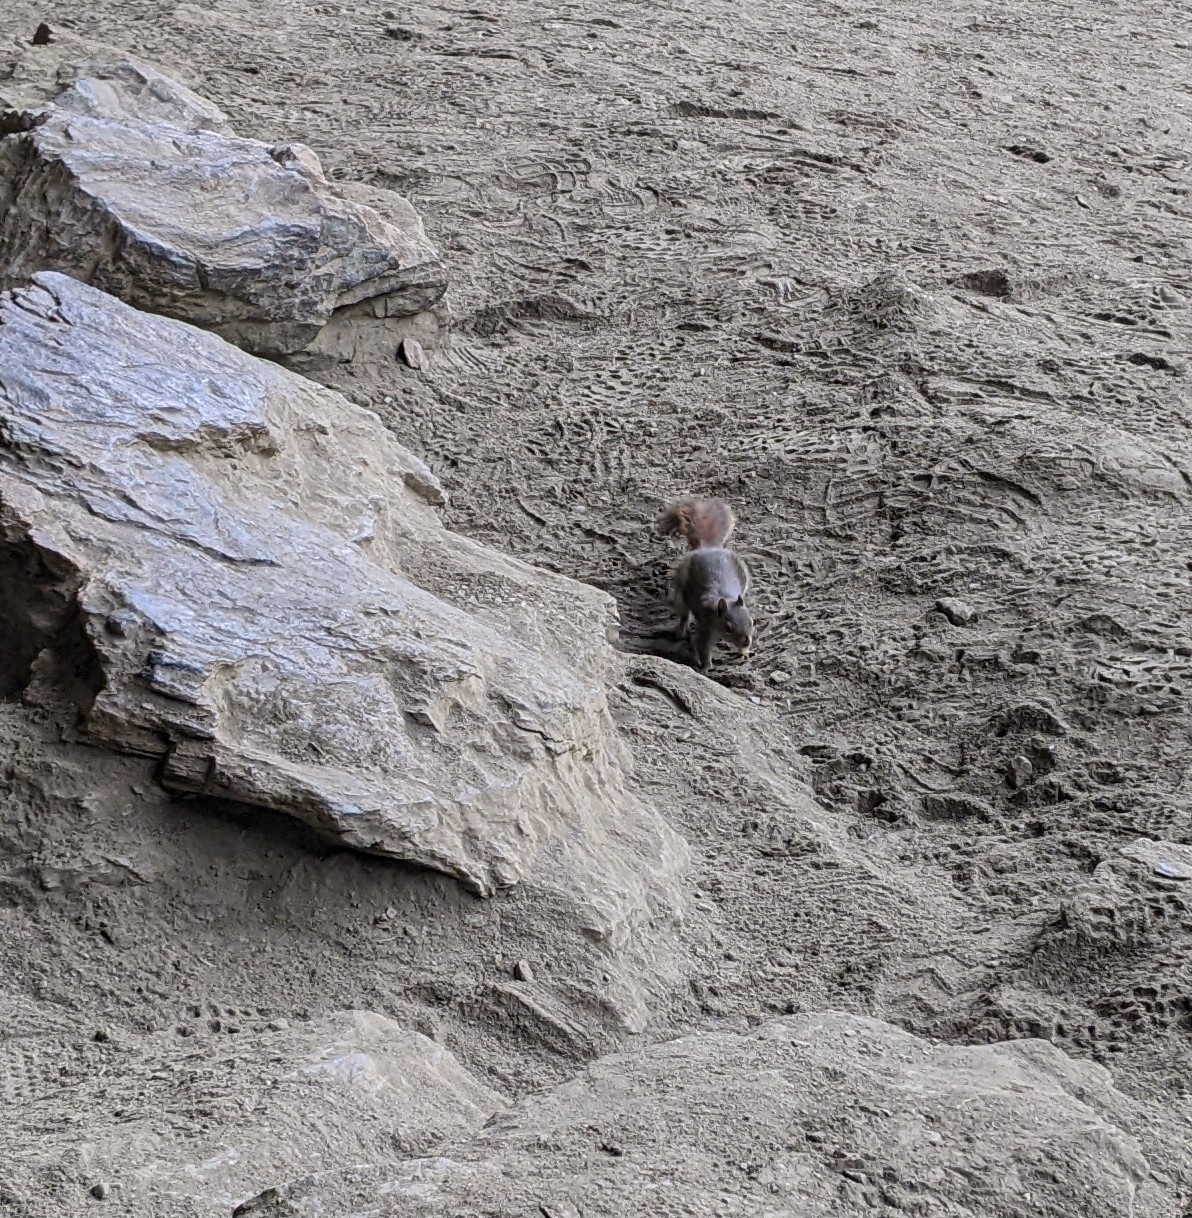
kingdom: Animalia
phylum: Chordata
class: Mammalia
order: Rodentia
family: Sciuridae
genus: Tamiasciurus
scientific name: Tamiasciurus hudsonicus
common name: Red squirrel
